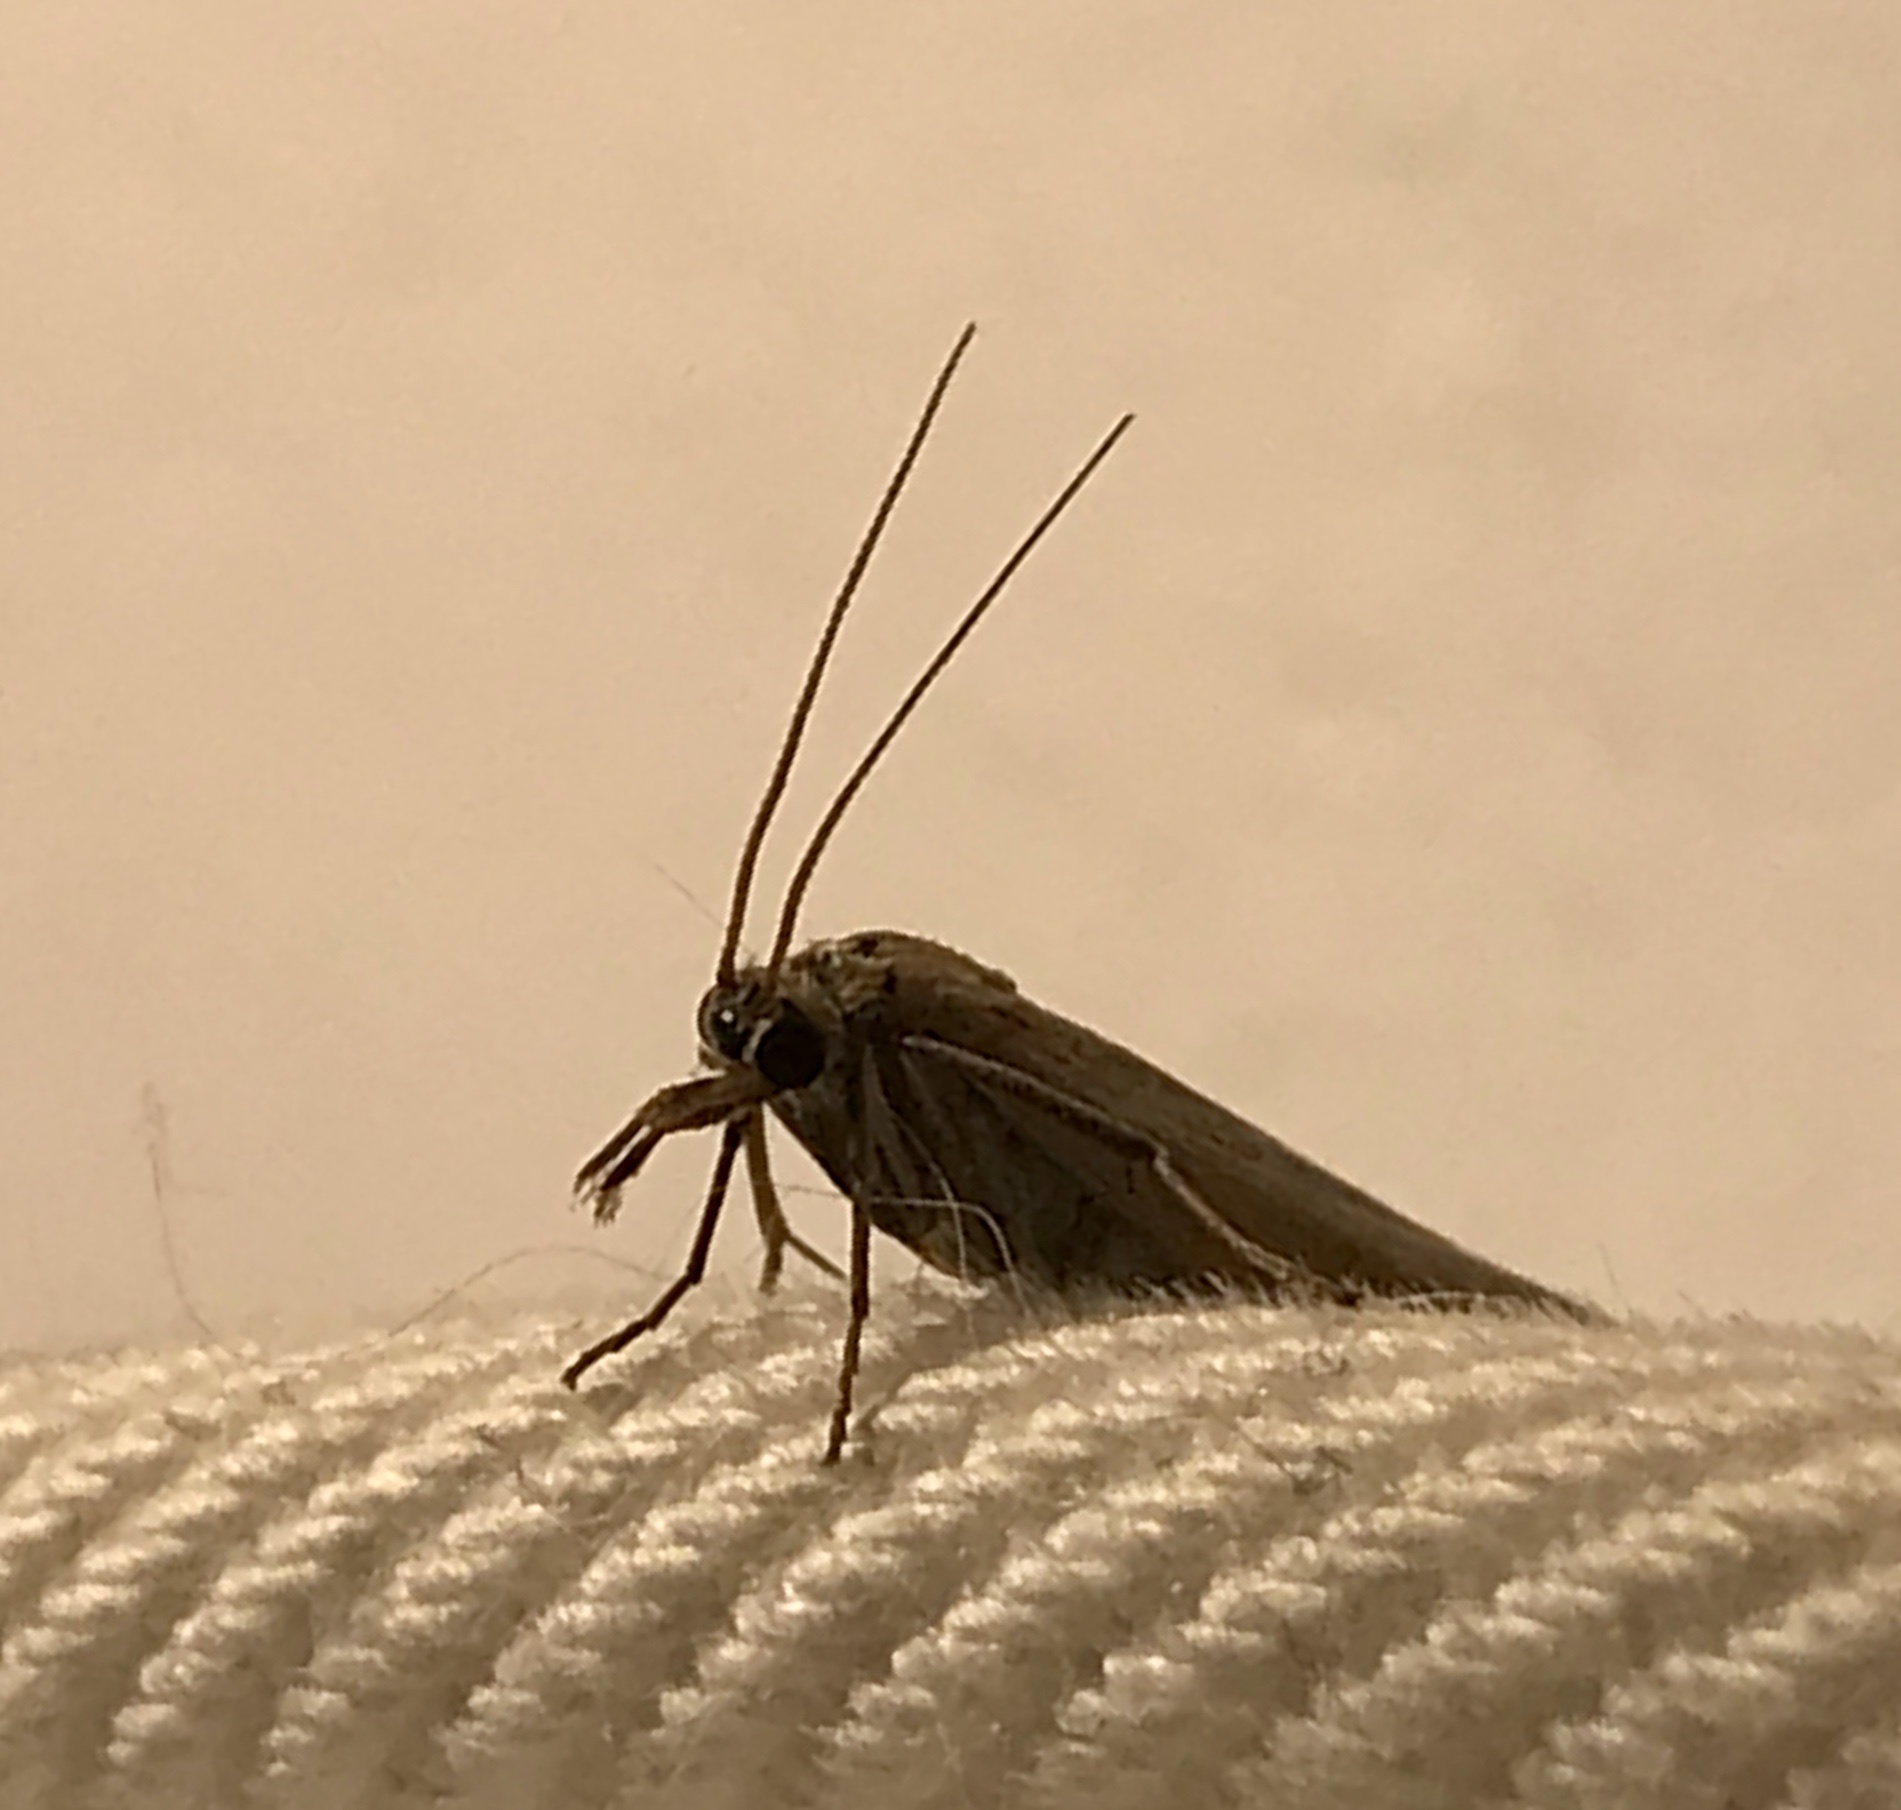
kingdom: Animalia
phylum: Arthropoda
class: Insecta
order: Lepidoptera
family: Crambidae
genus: Pediasia
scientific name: Pediasia luteella
